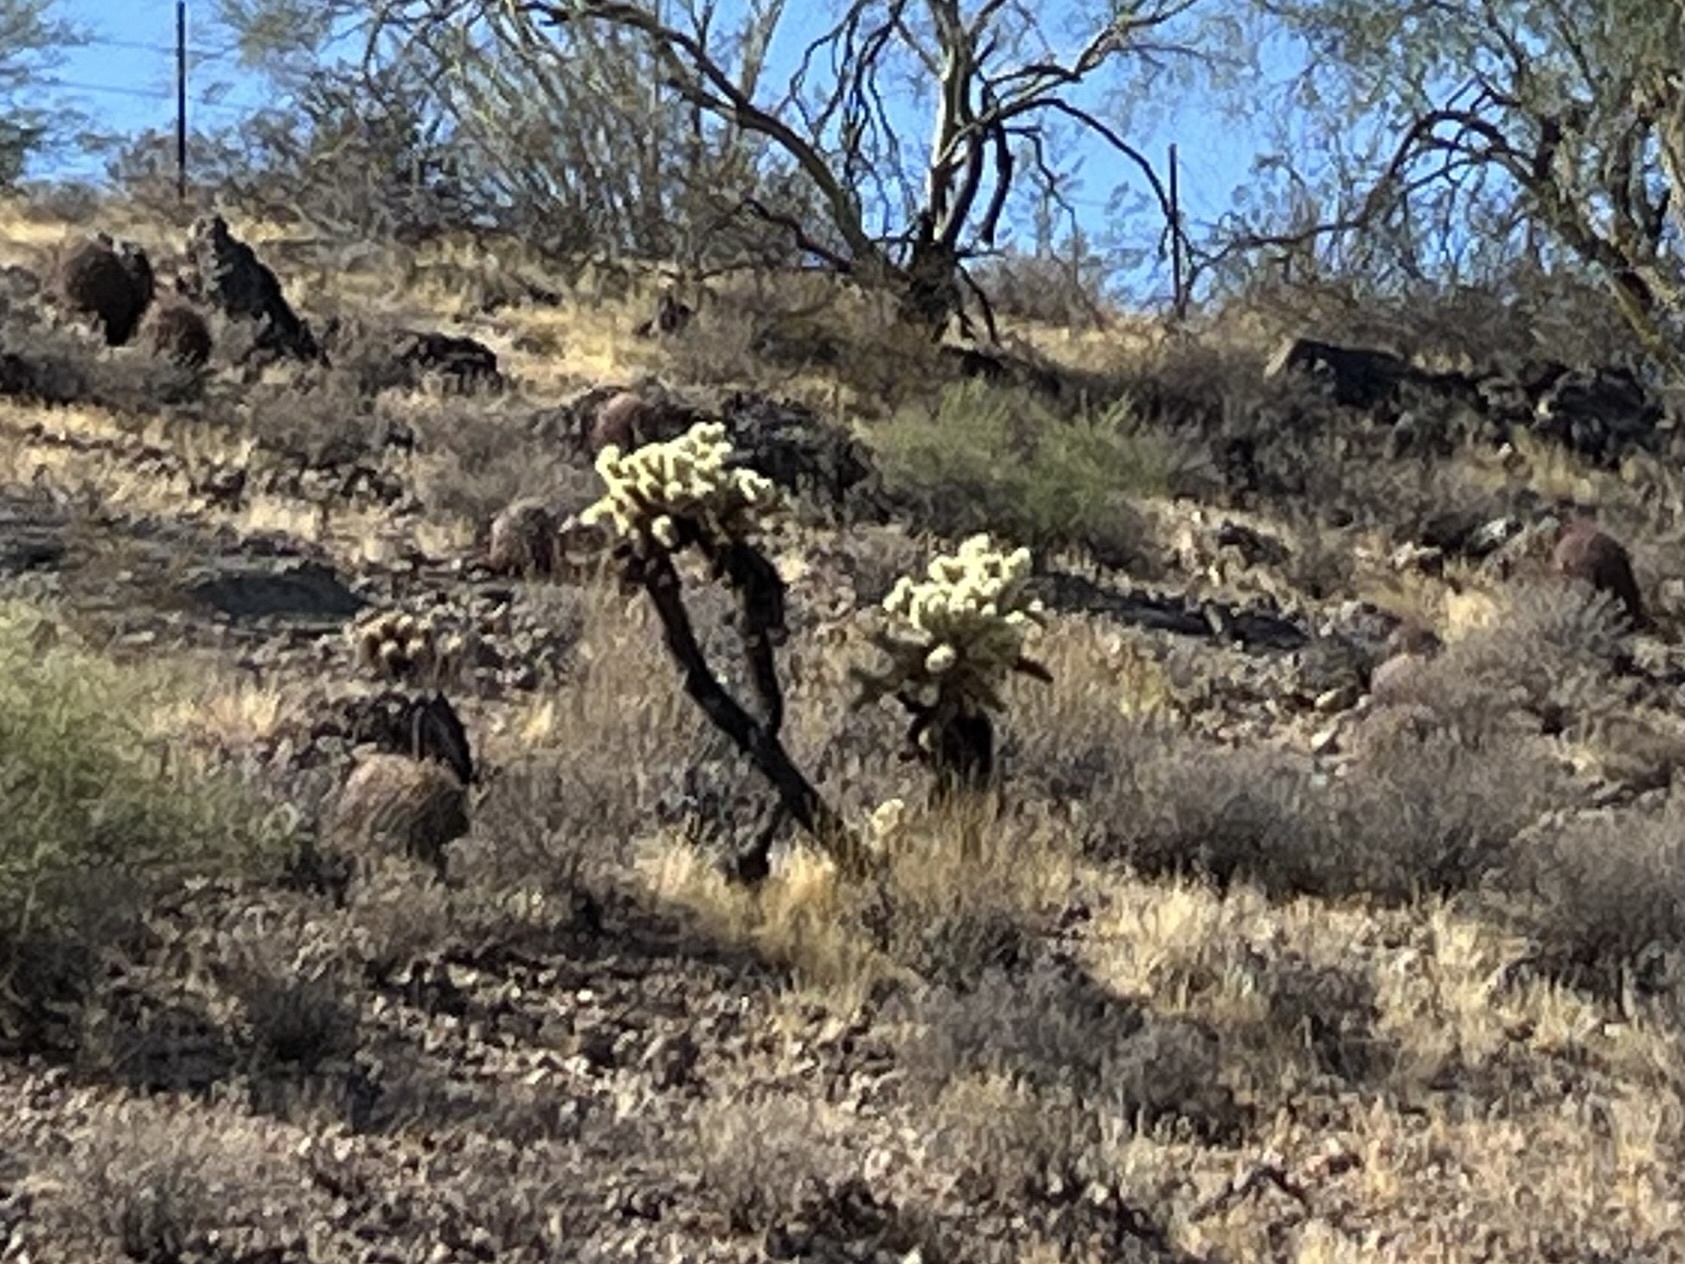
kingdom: Plantae
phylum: Tracheophyta
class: Magnoliopsida
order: Caryophyllales
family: Cactaceae
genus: Cylindropuntia
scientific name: Cylindropuntia fosbergii
